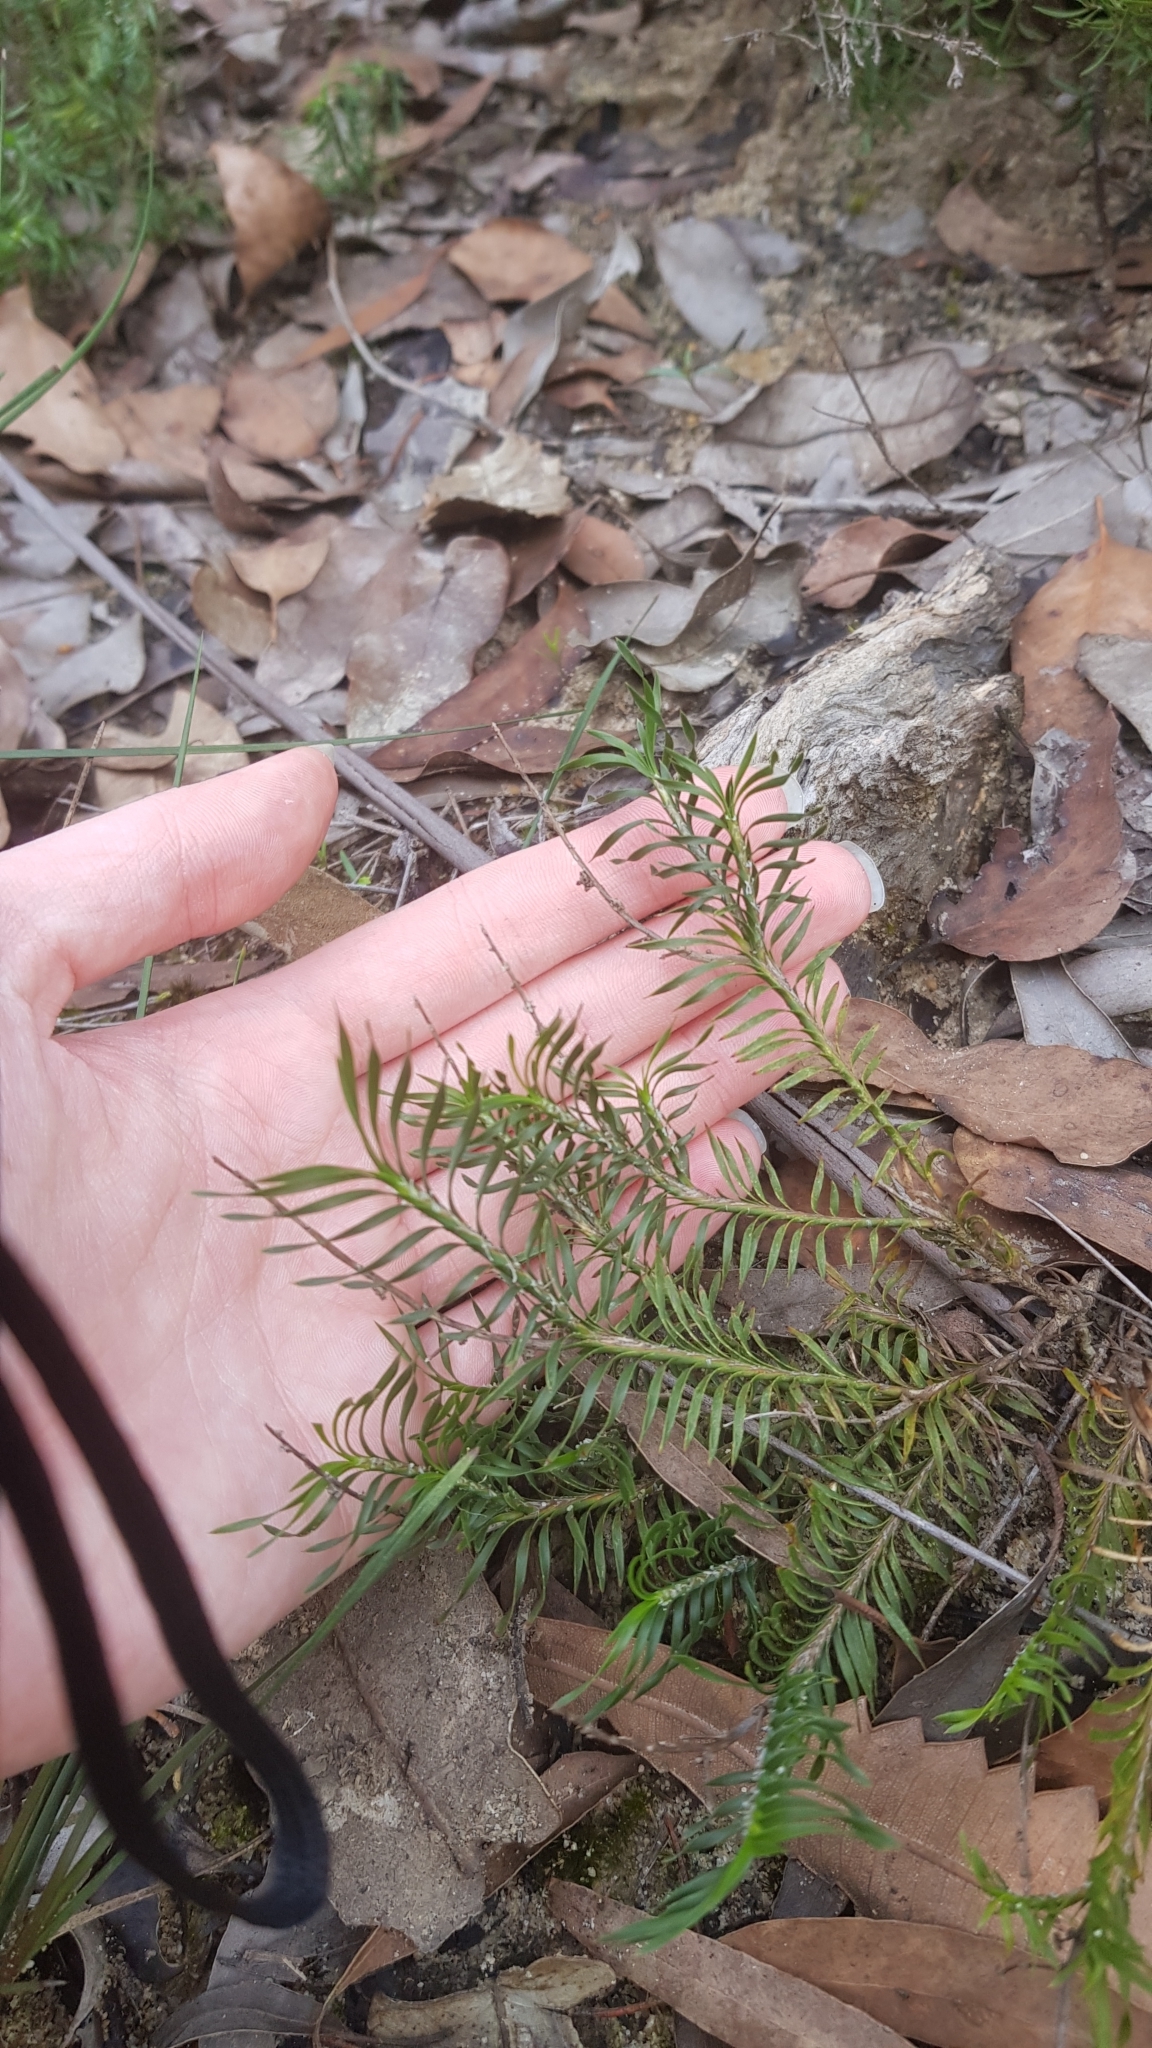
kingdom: Plantae
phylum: Tracheophyta
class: Liliopsida
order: Asparagales
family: Asparagaceae
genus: Lomandra
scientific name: Lomandra obliqua
